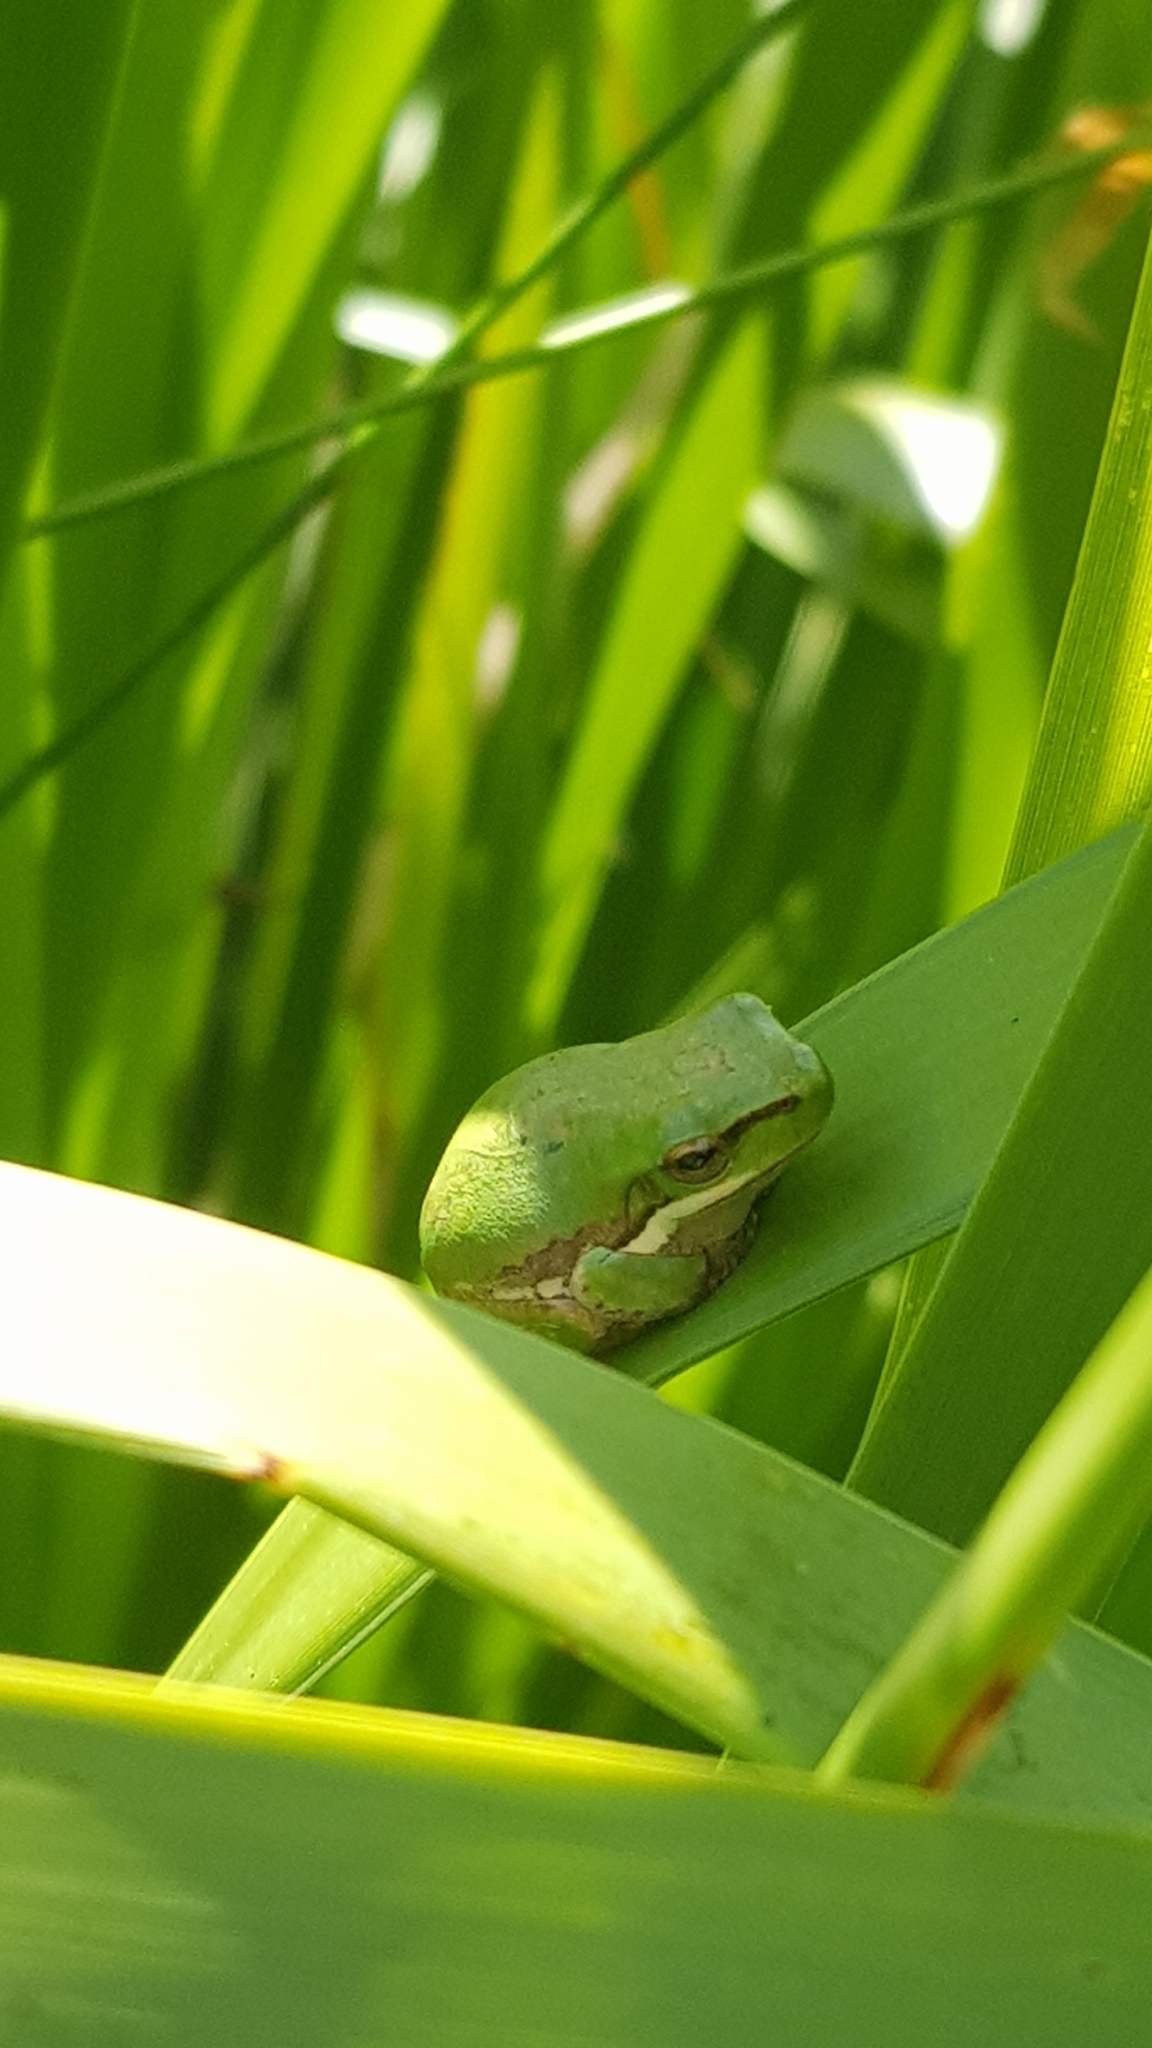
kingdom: Animalia
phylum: Chordata
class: Amphibia
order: Anura
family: Pelodryadidae
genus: Litoria
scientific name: Litoria fallax
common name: Eastern dwarf treefrog
